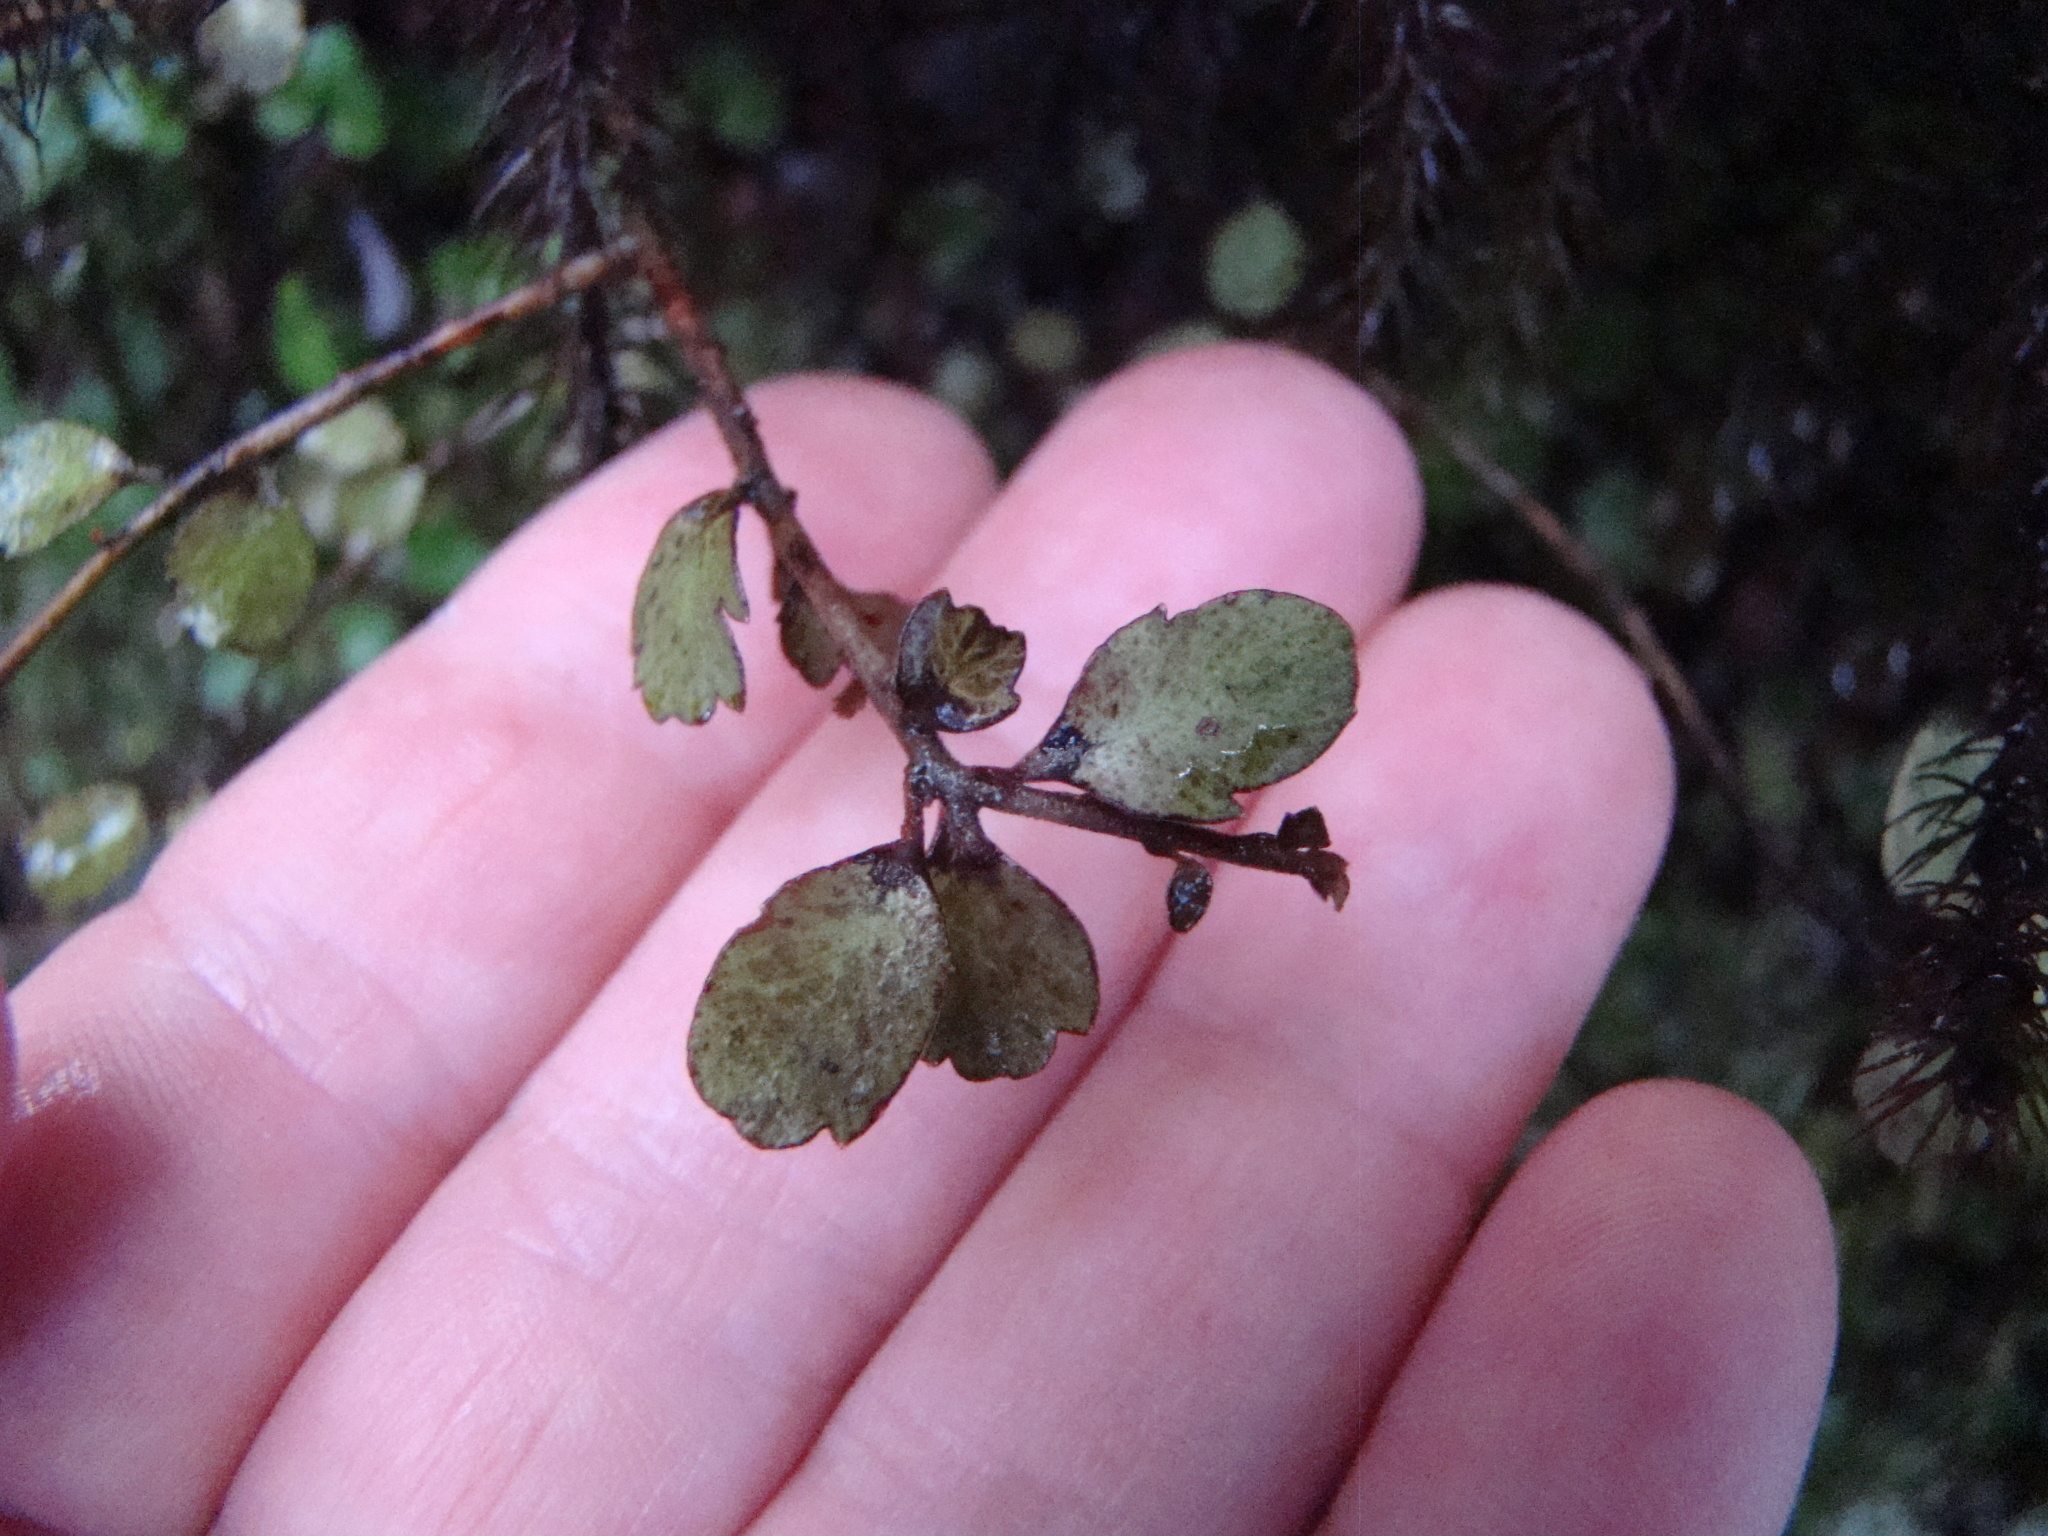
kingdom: Plantae
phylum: Tracheophyta
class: Magnoliopsida
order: Ericales
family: Primulaceae
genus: Myrsine
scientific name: Myrsine divaricata
